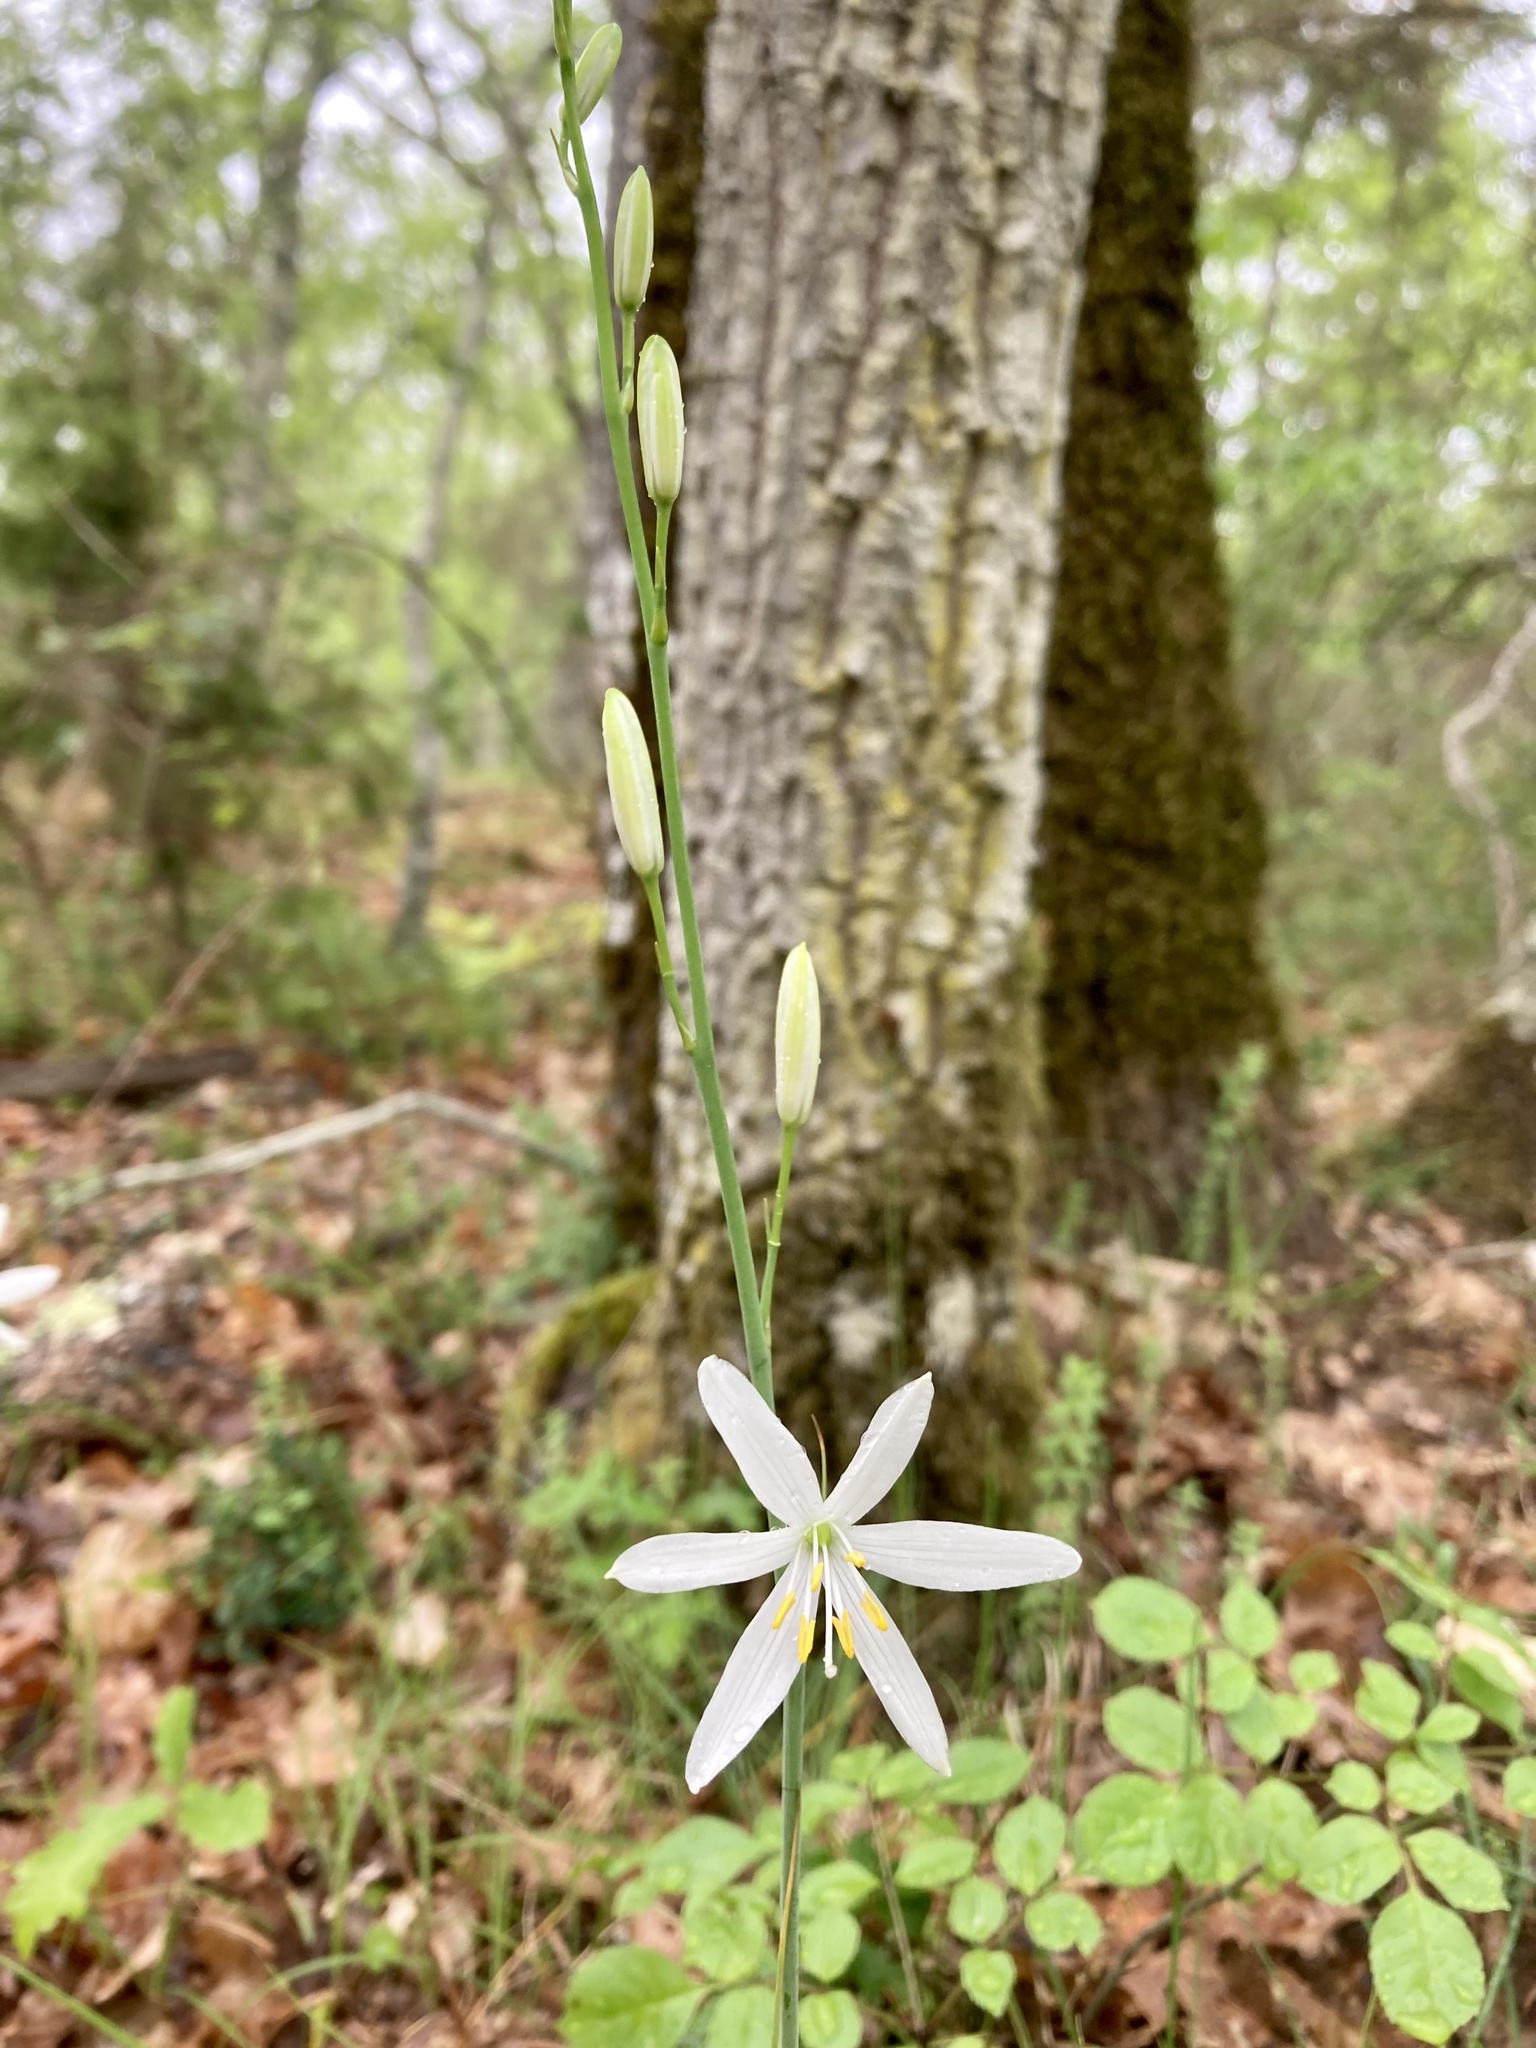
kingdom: Plantae
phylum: Tracheophyta
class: Liliopsida
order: Asparagales
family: Asparagaceae
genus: Anthericum
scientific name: Anthericum liliago
